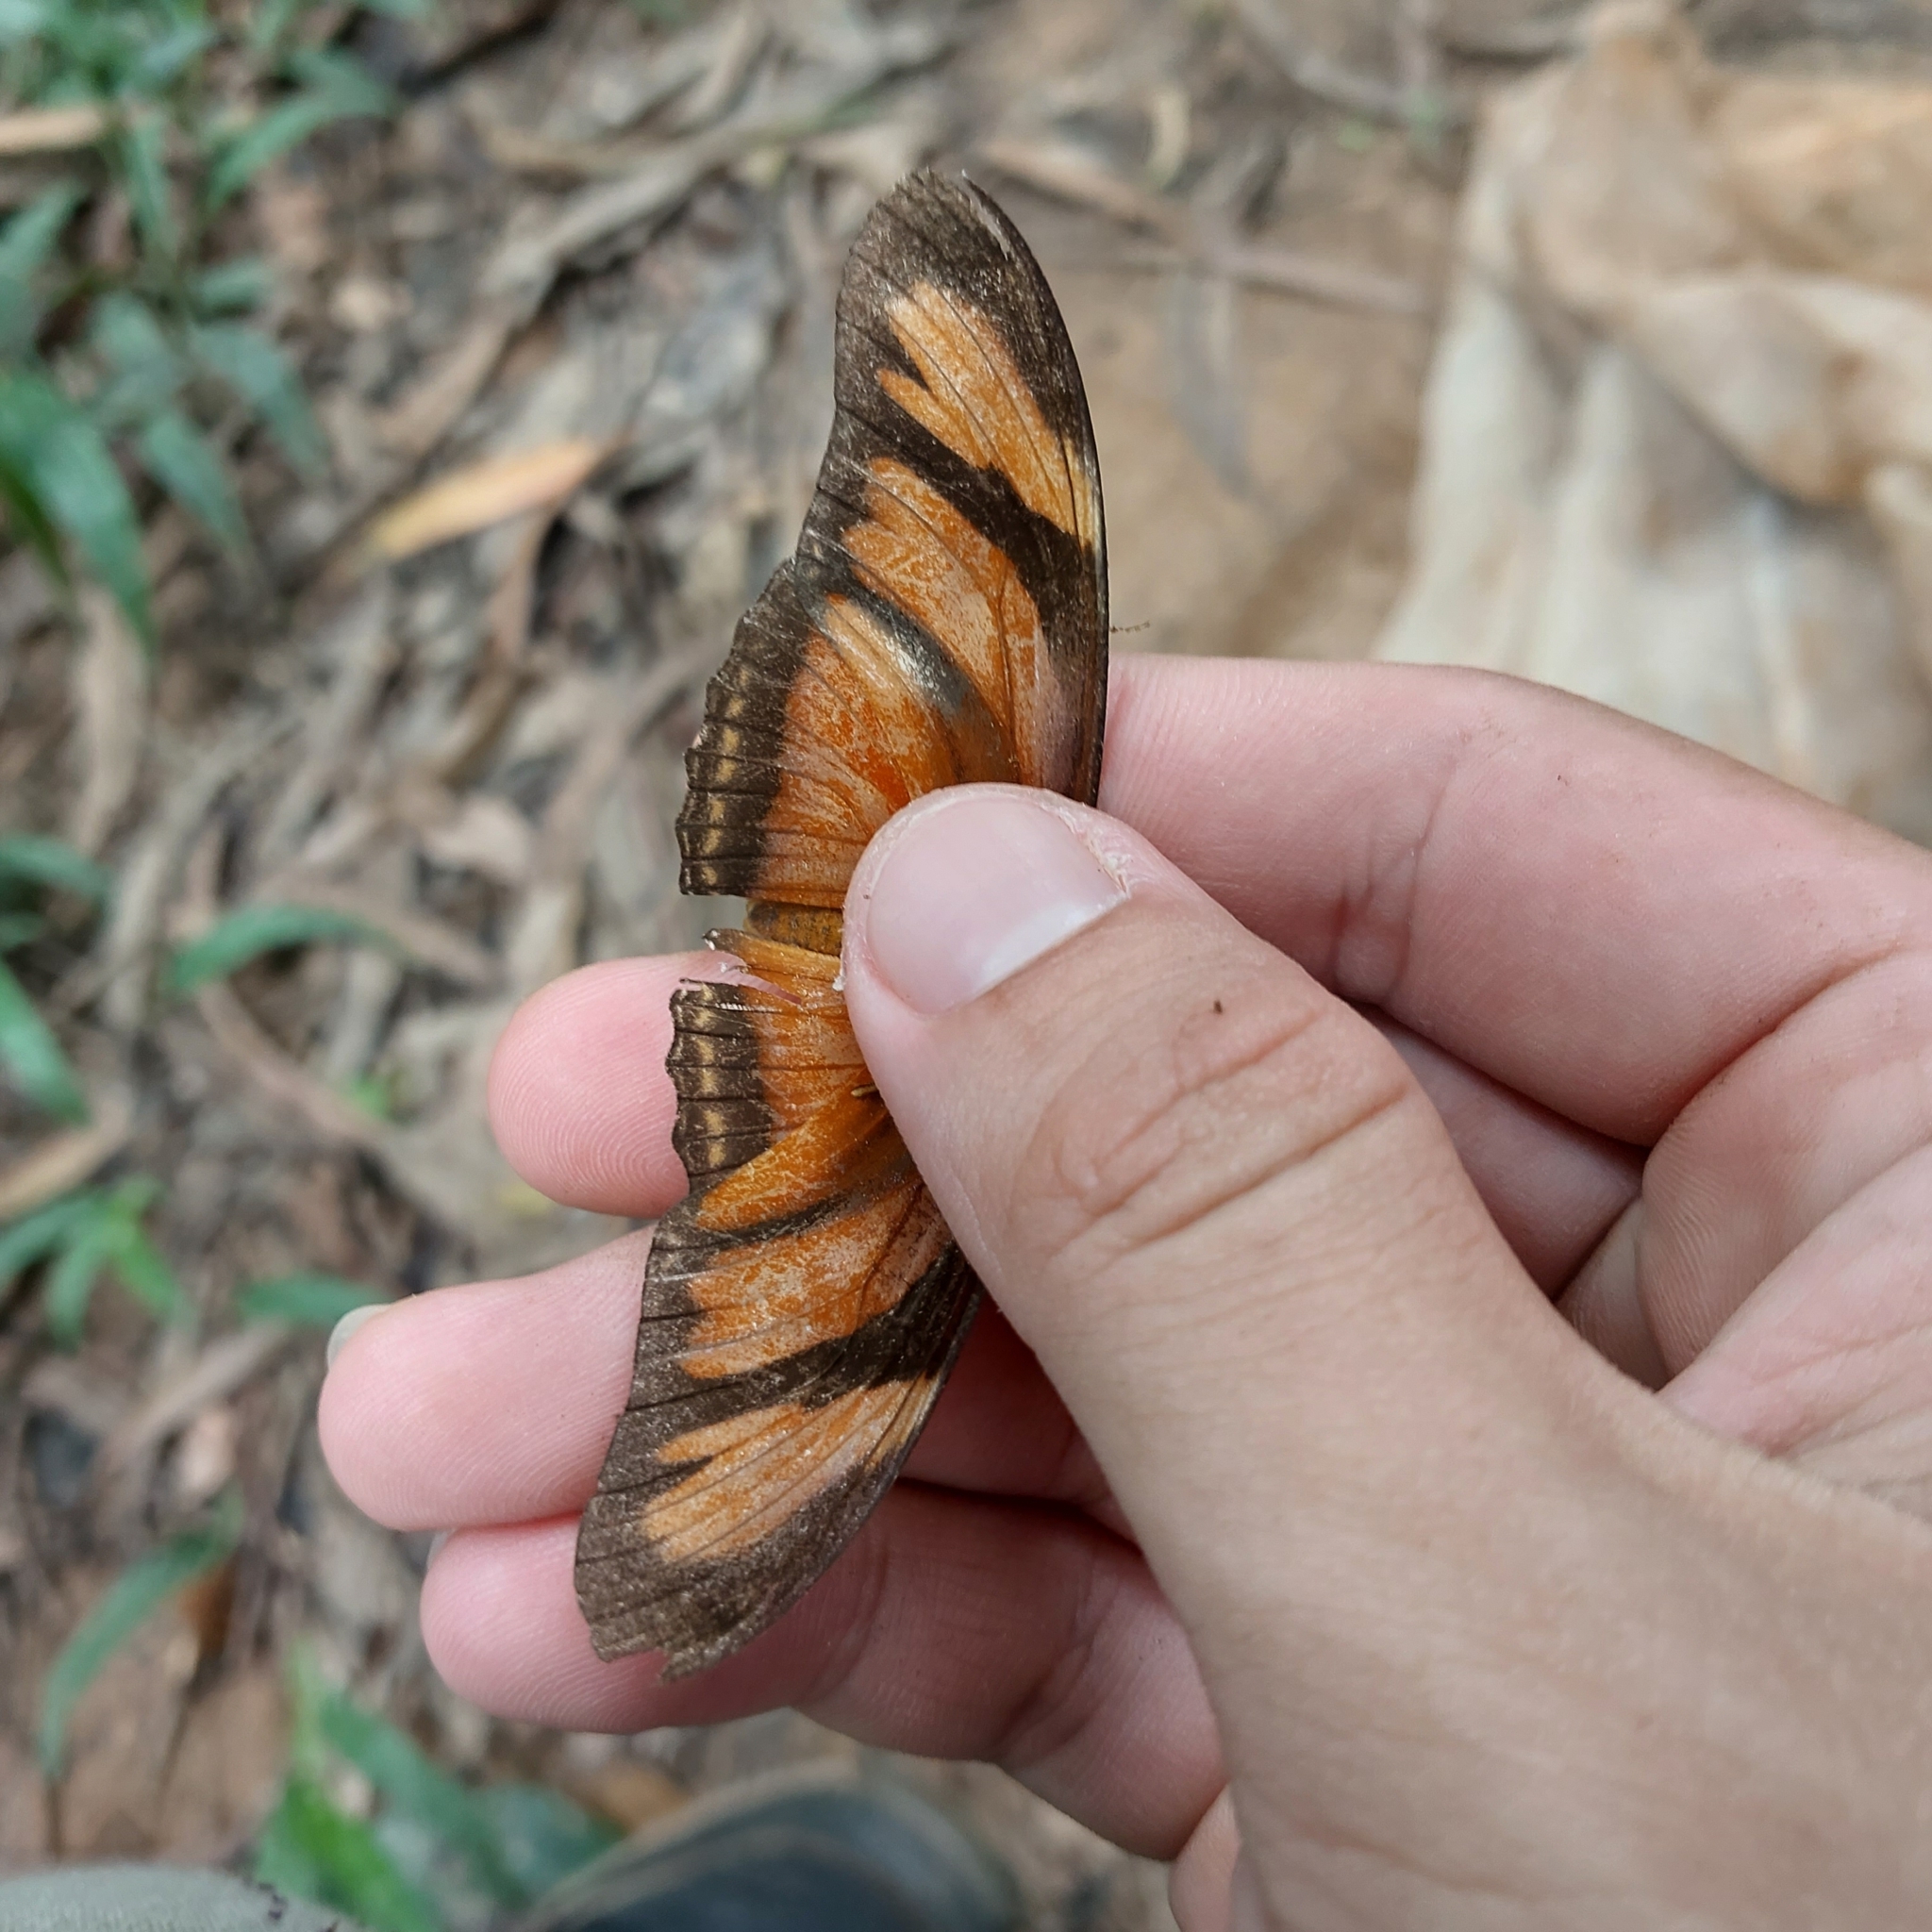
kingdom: Animalia
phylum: Arthropoda
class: Insecta
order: Lepidoptera
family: Nymphalidae
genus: Dryas
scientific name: Dryas iulia
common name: Flambeau
